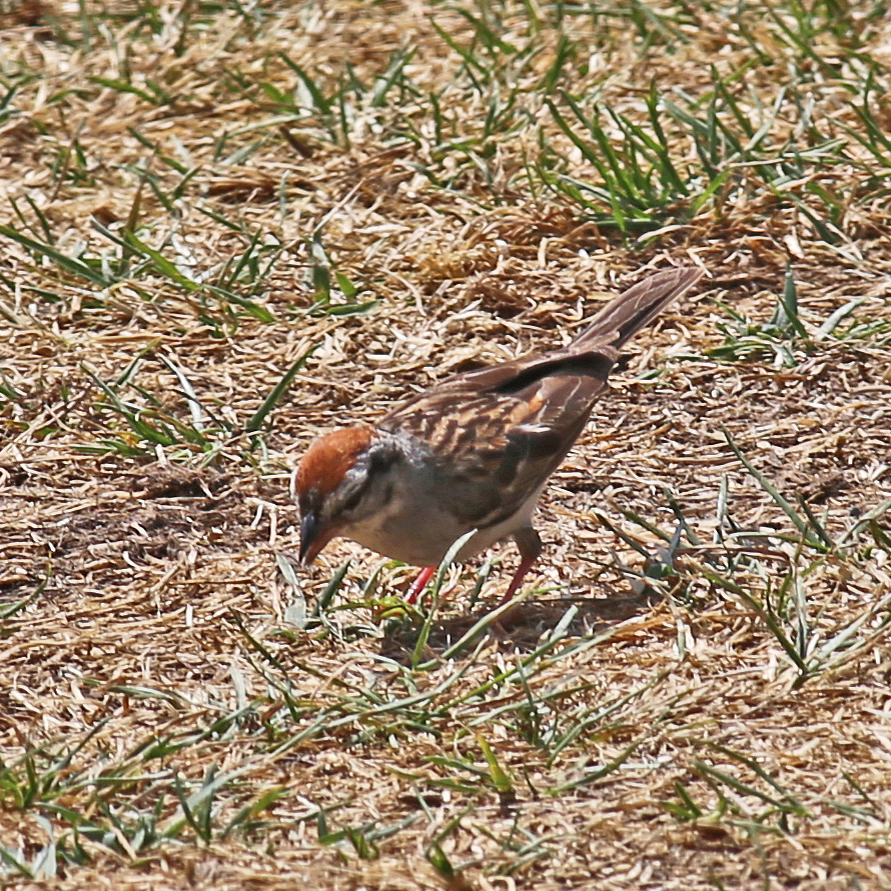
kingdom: Animalia
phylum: Chordata
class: Aves
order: Passeriformes
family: Passerellidae
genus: Spizella
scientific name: Spizella passerina
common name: Chipping sparrow
